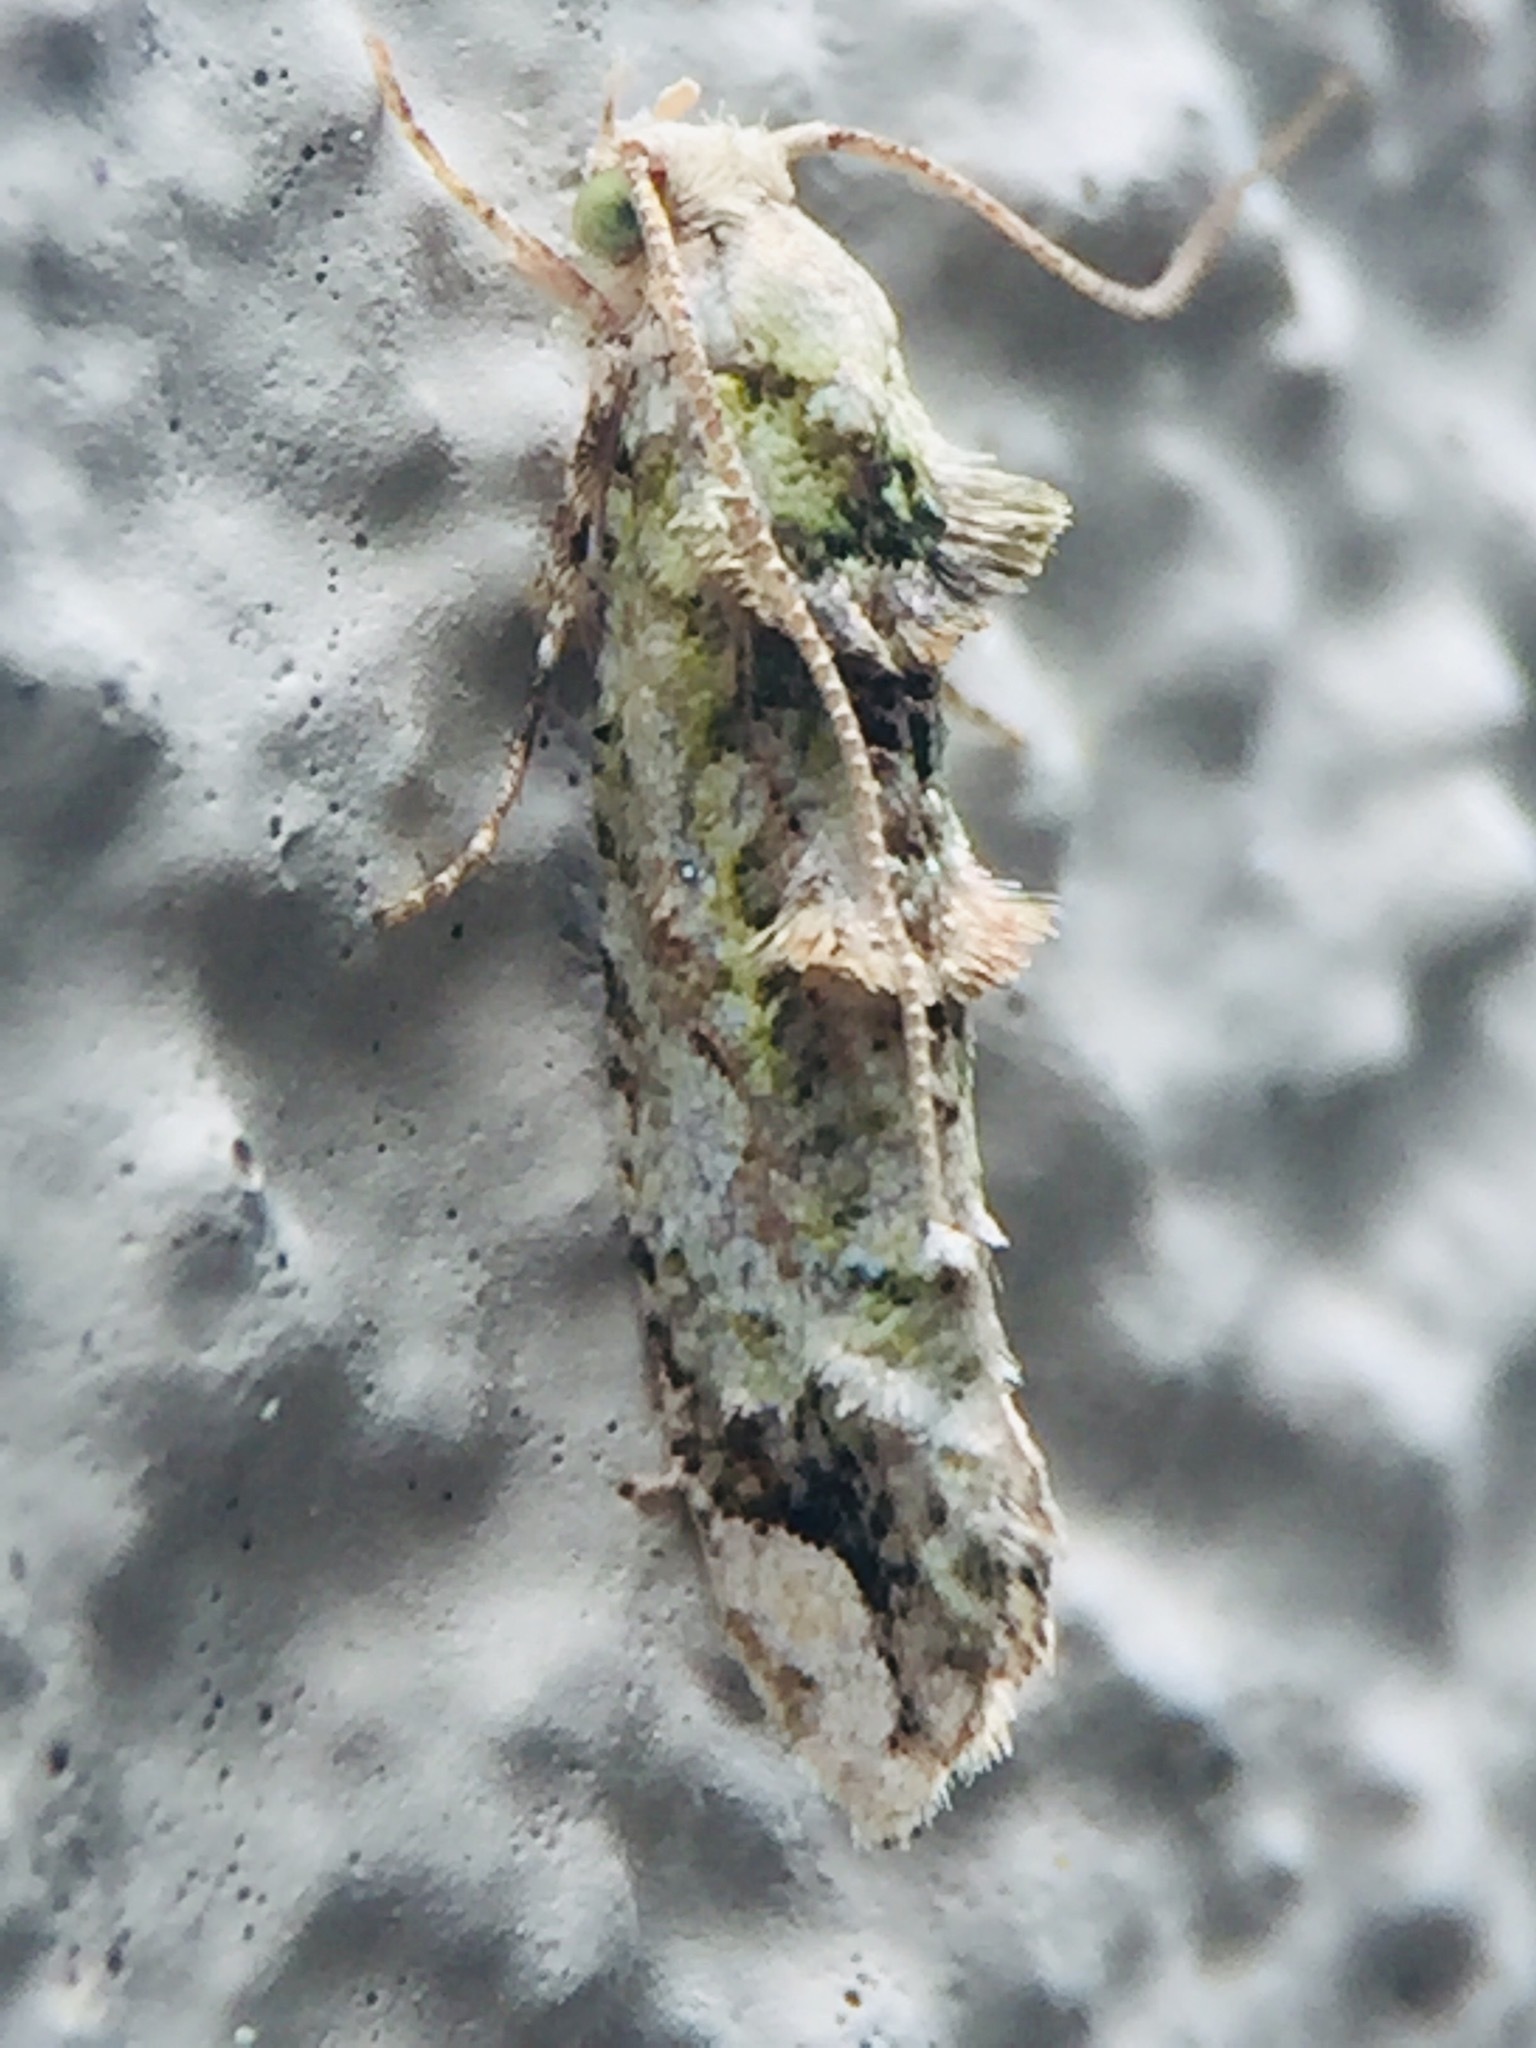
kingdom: Animalia
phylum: Arthropoda
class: Insecta
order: Lepidoptera
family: Tineidae
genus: Lysiphragma
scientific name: Lysiphragma mixochlora
